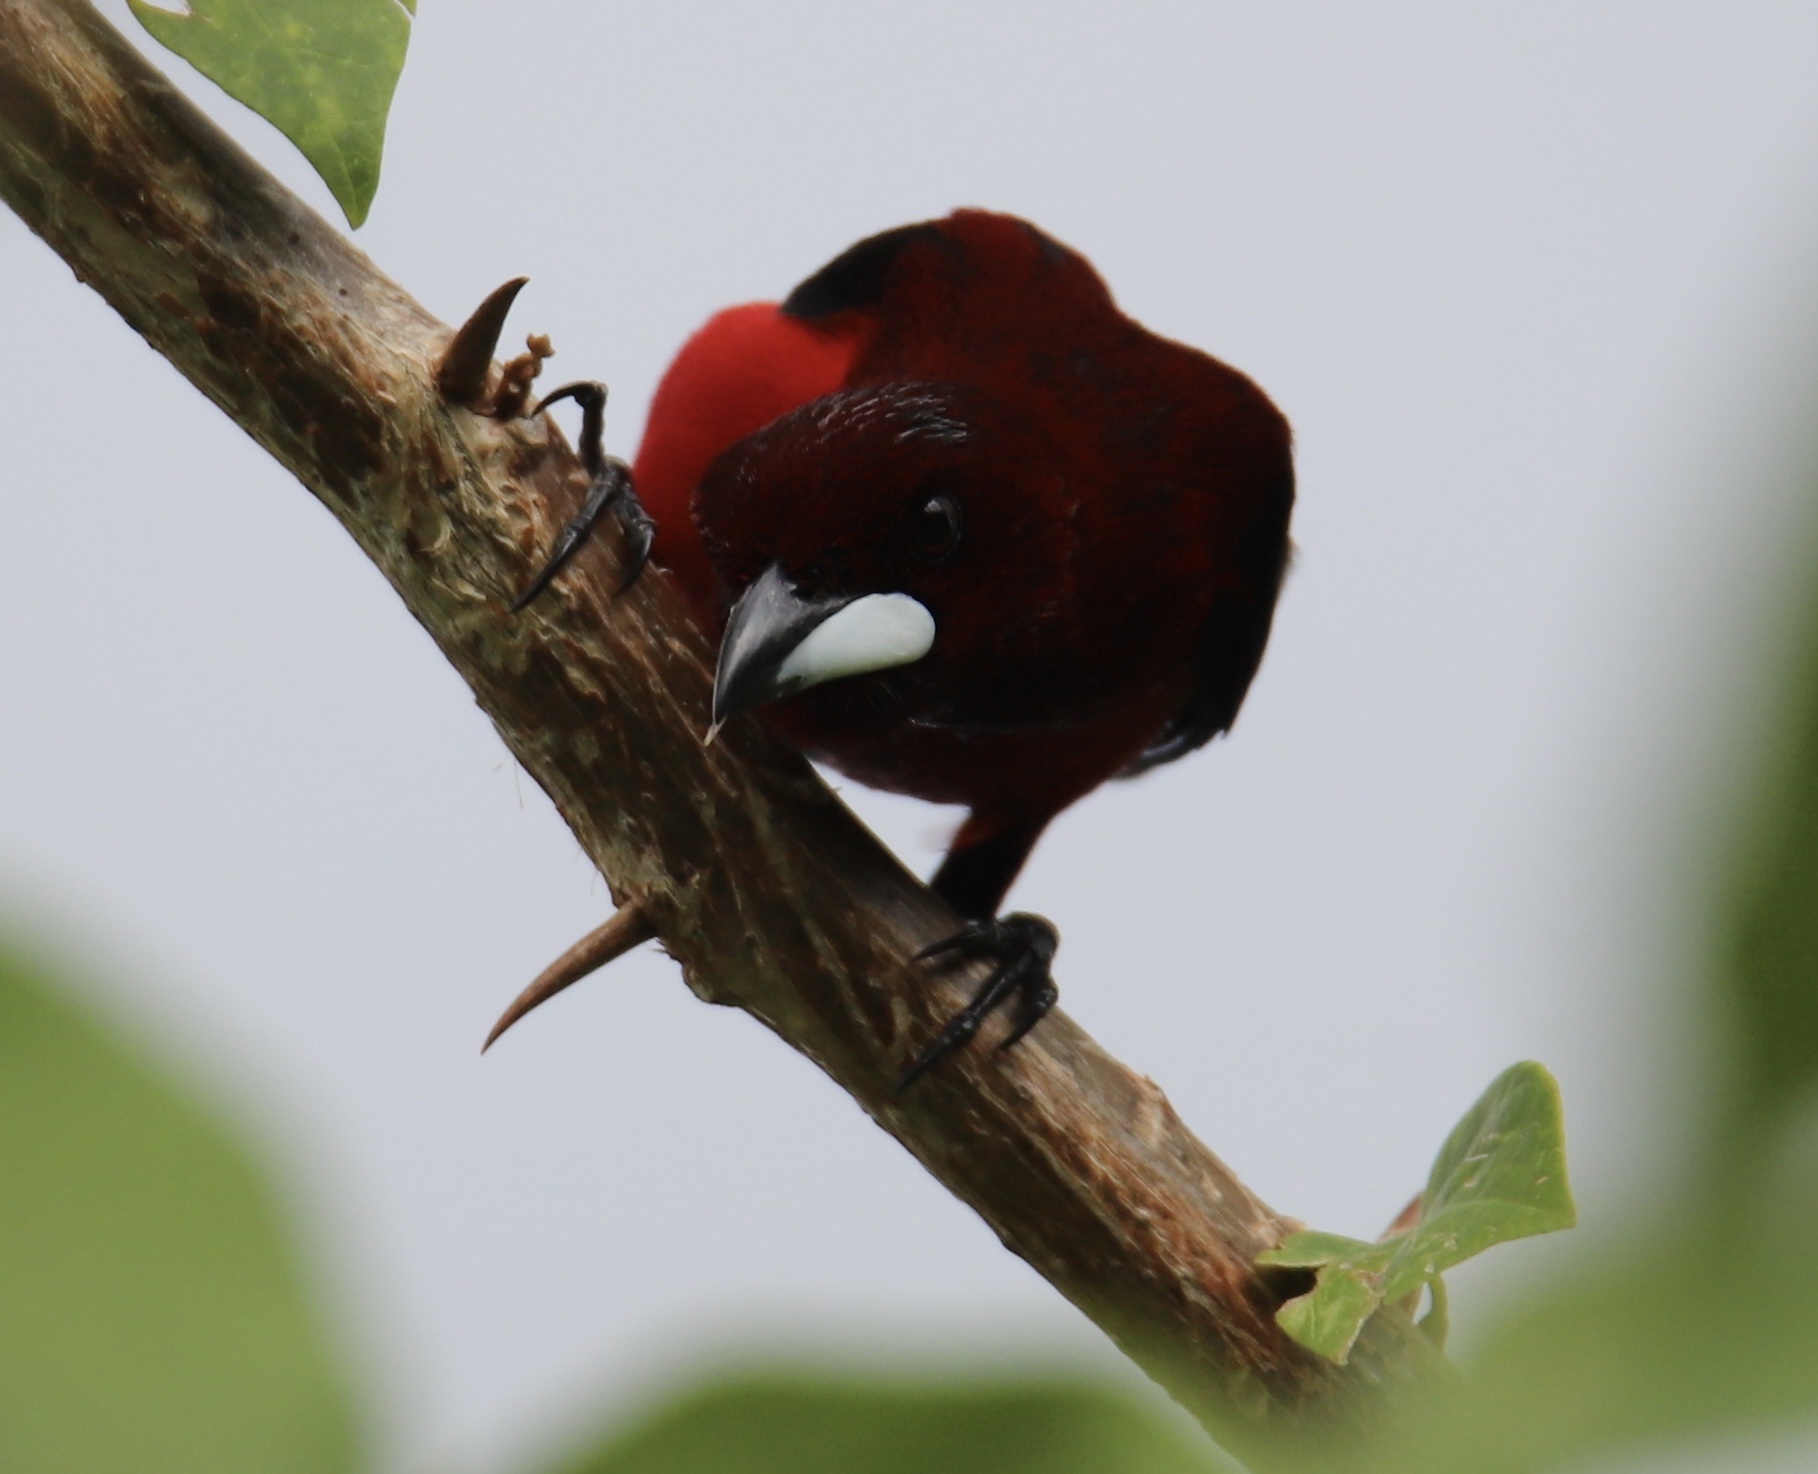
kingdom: Animalia
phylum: Chordata
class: Aves
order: Passeriformes
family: Thraupidae
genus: Ramphocelus
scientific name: Ramphocelus dimidiatus
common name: Crimson-backed tanager
